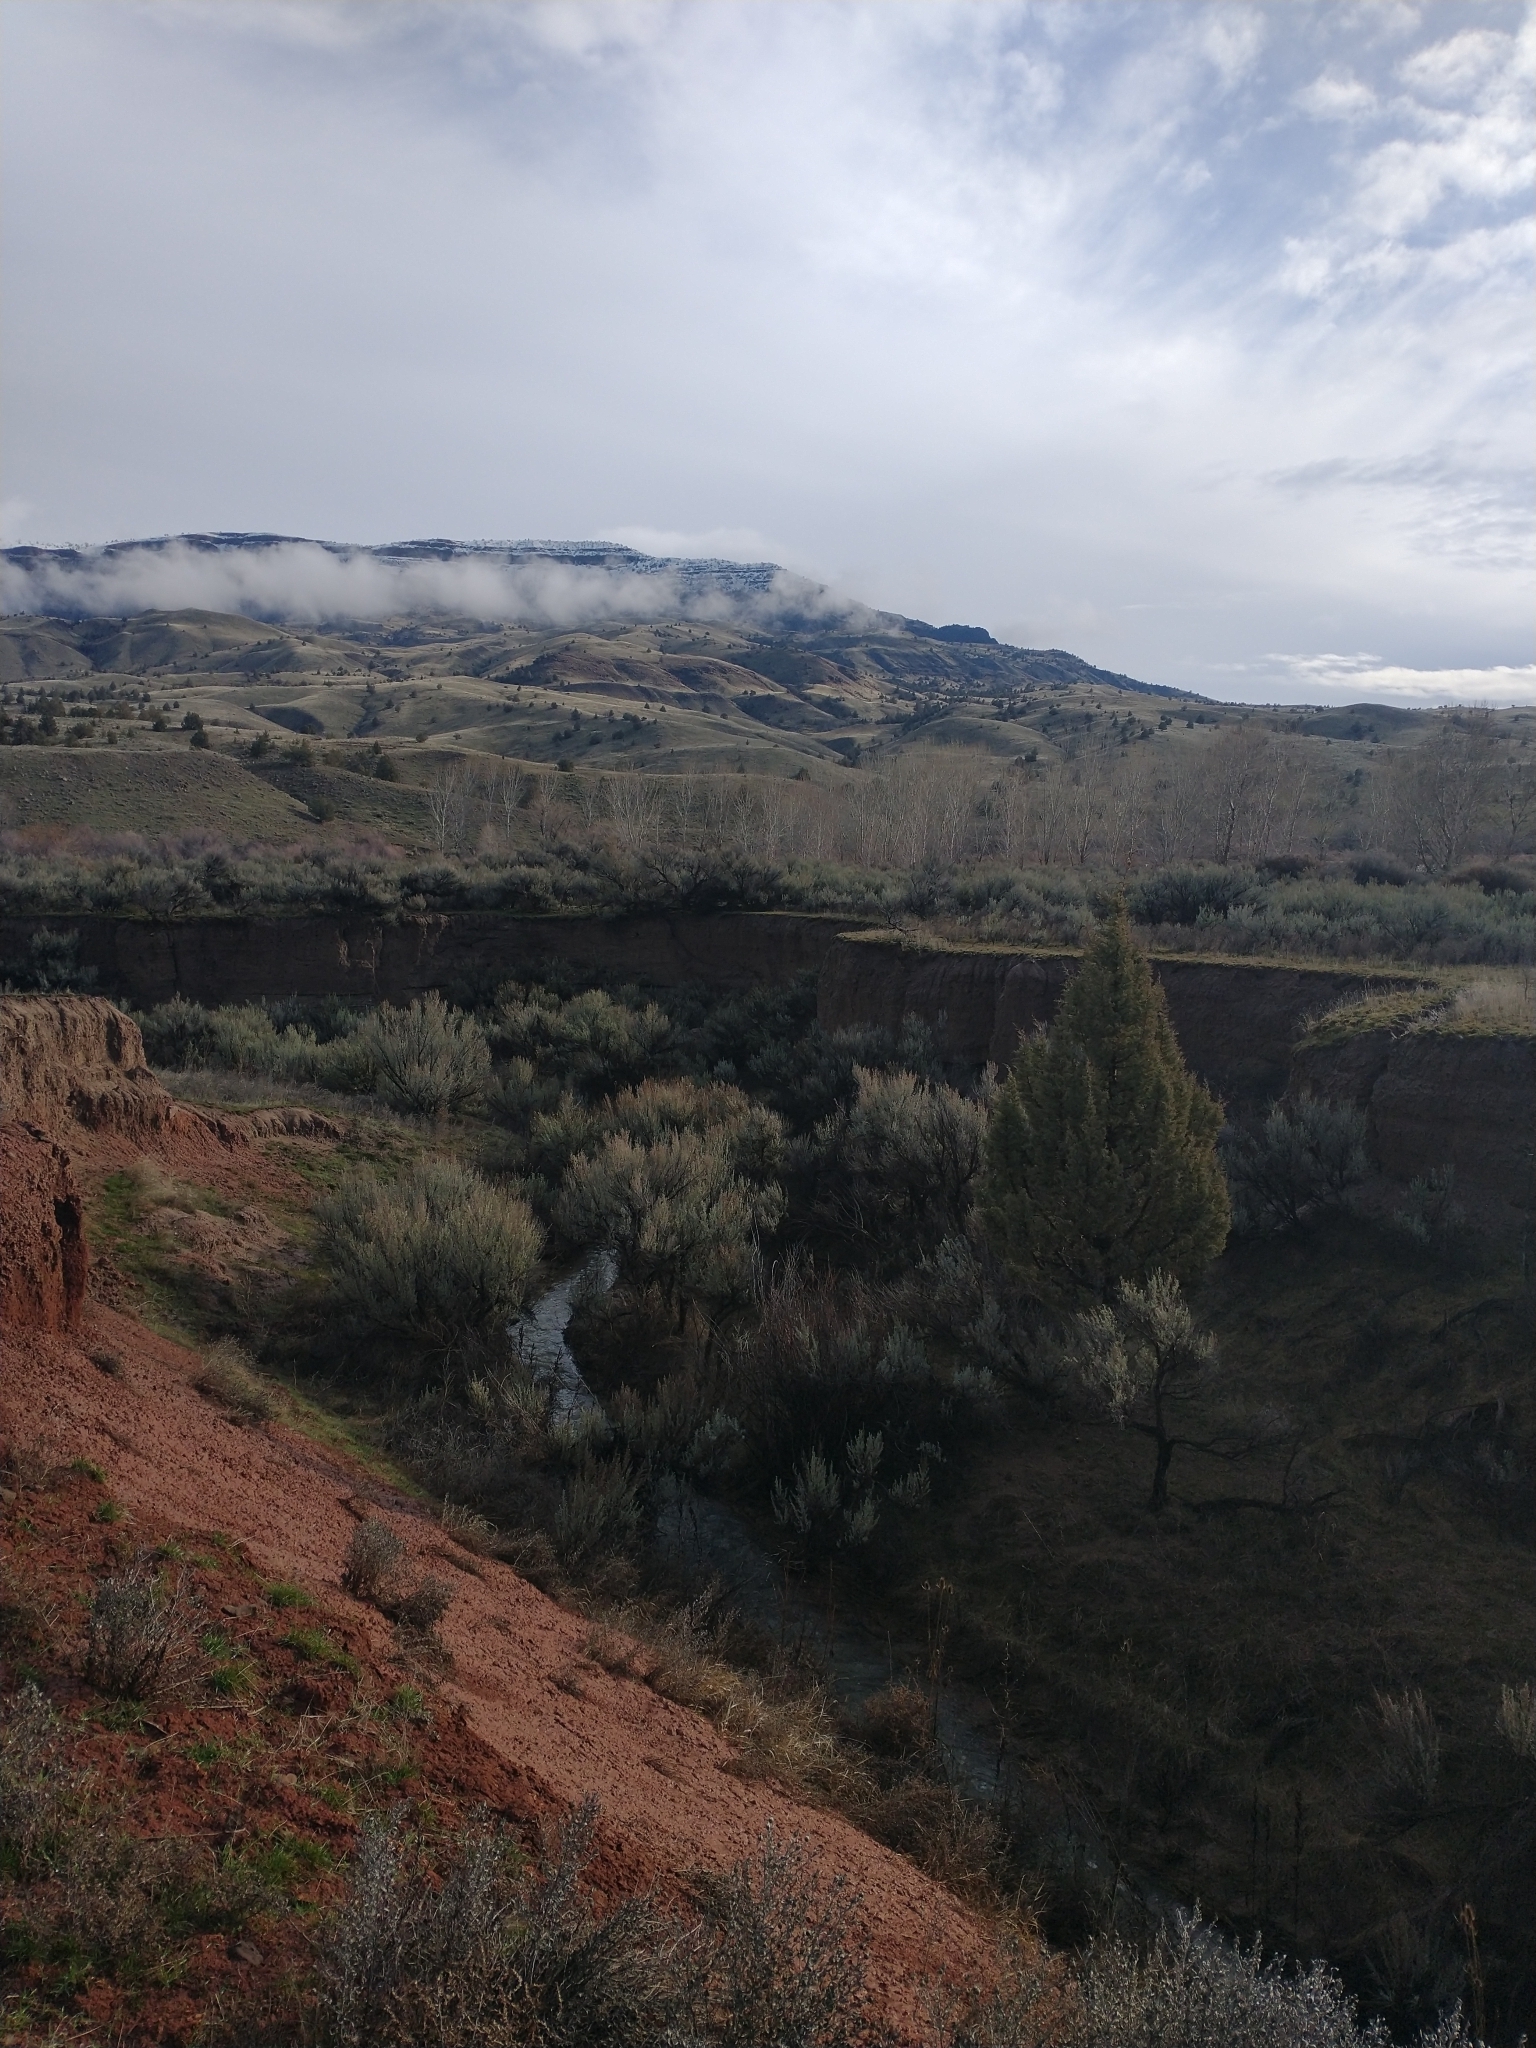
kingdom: Plantae
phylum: Tracheophyta
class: Pinopsida
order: Pinales
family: Cupressaceae
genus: Juniperus
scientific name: Juniperus occidentalis
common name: Western juniper
